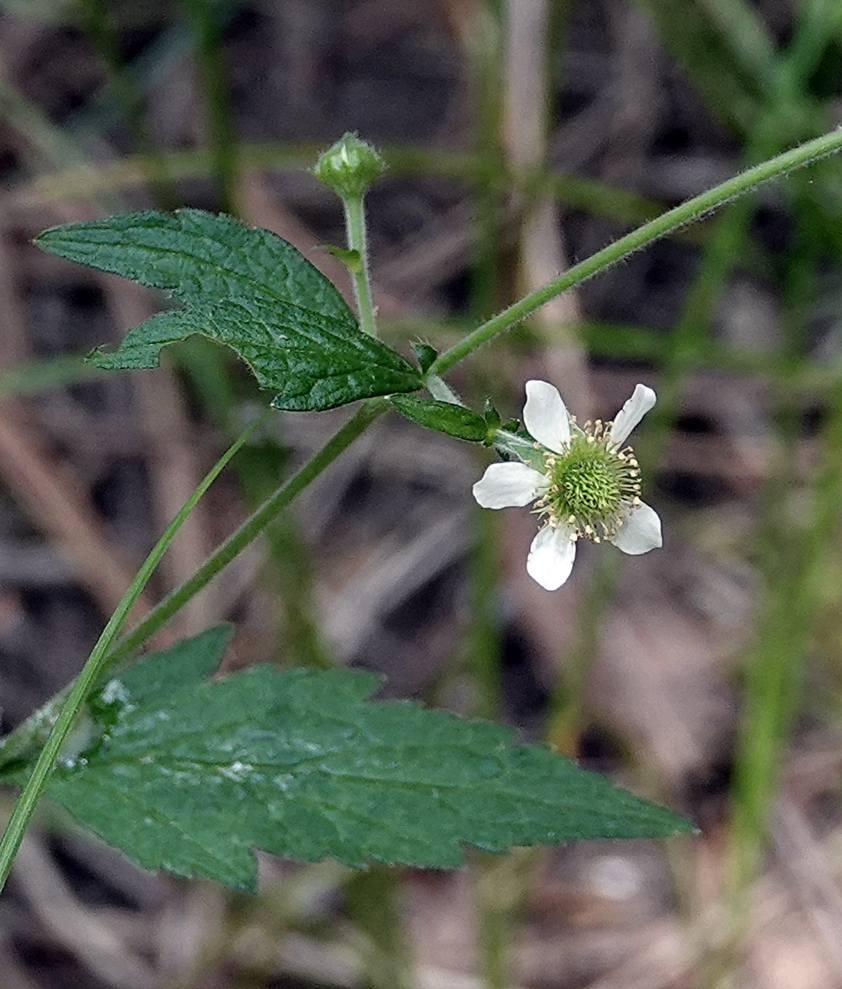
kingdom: Plantae
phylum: Tracheophyta
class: Magnoliopsida
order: Rosales
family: Rosaceae
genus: Geum
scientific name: Geum canadense
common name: White avens
